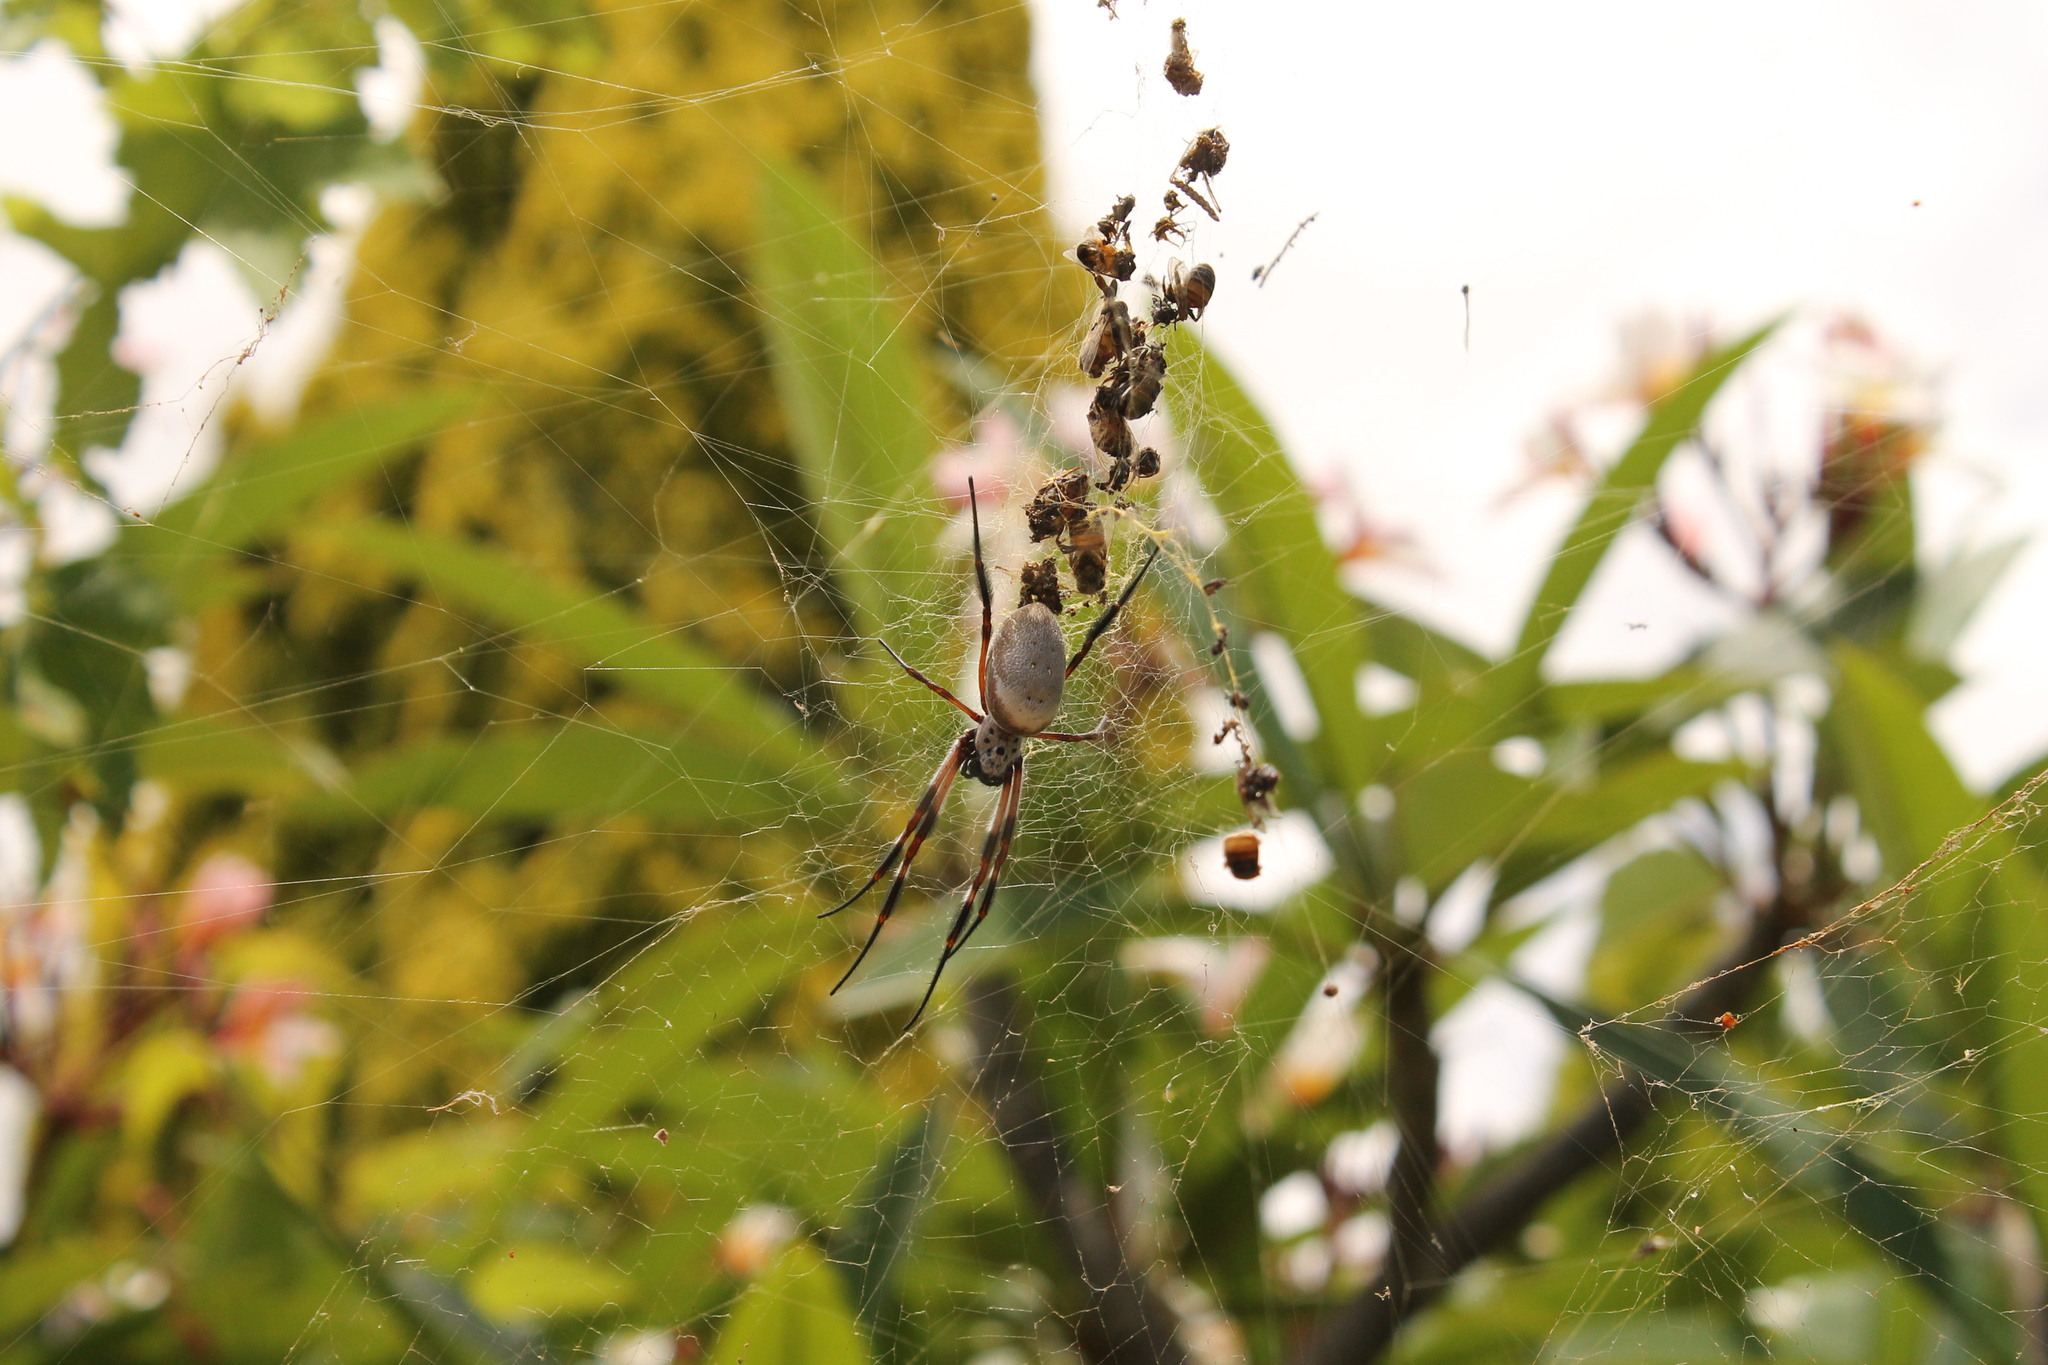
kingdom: Animalia
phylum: Arthropoda
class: Arachnida
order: Araneae
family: Araneidae
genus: Trichonephila
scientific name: Trichonephila edulis
